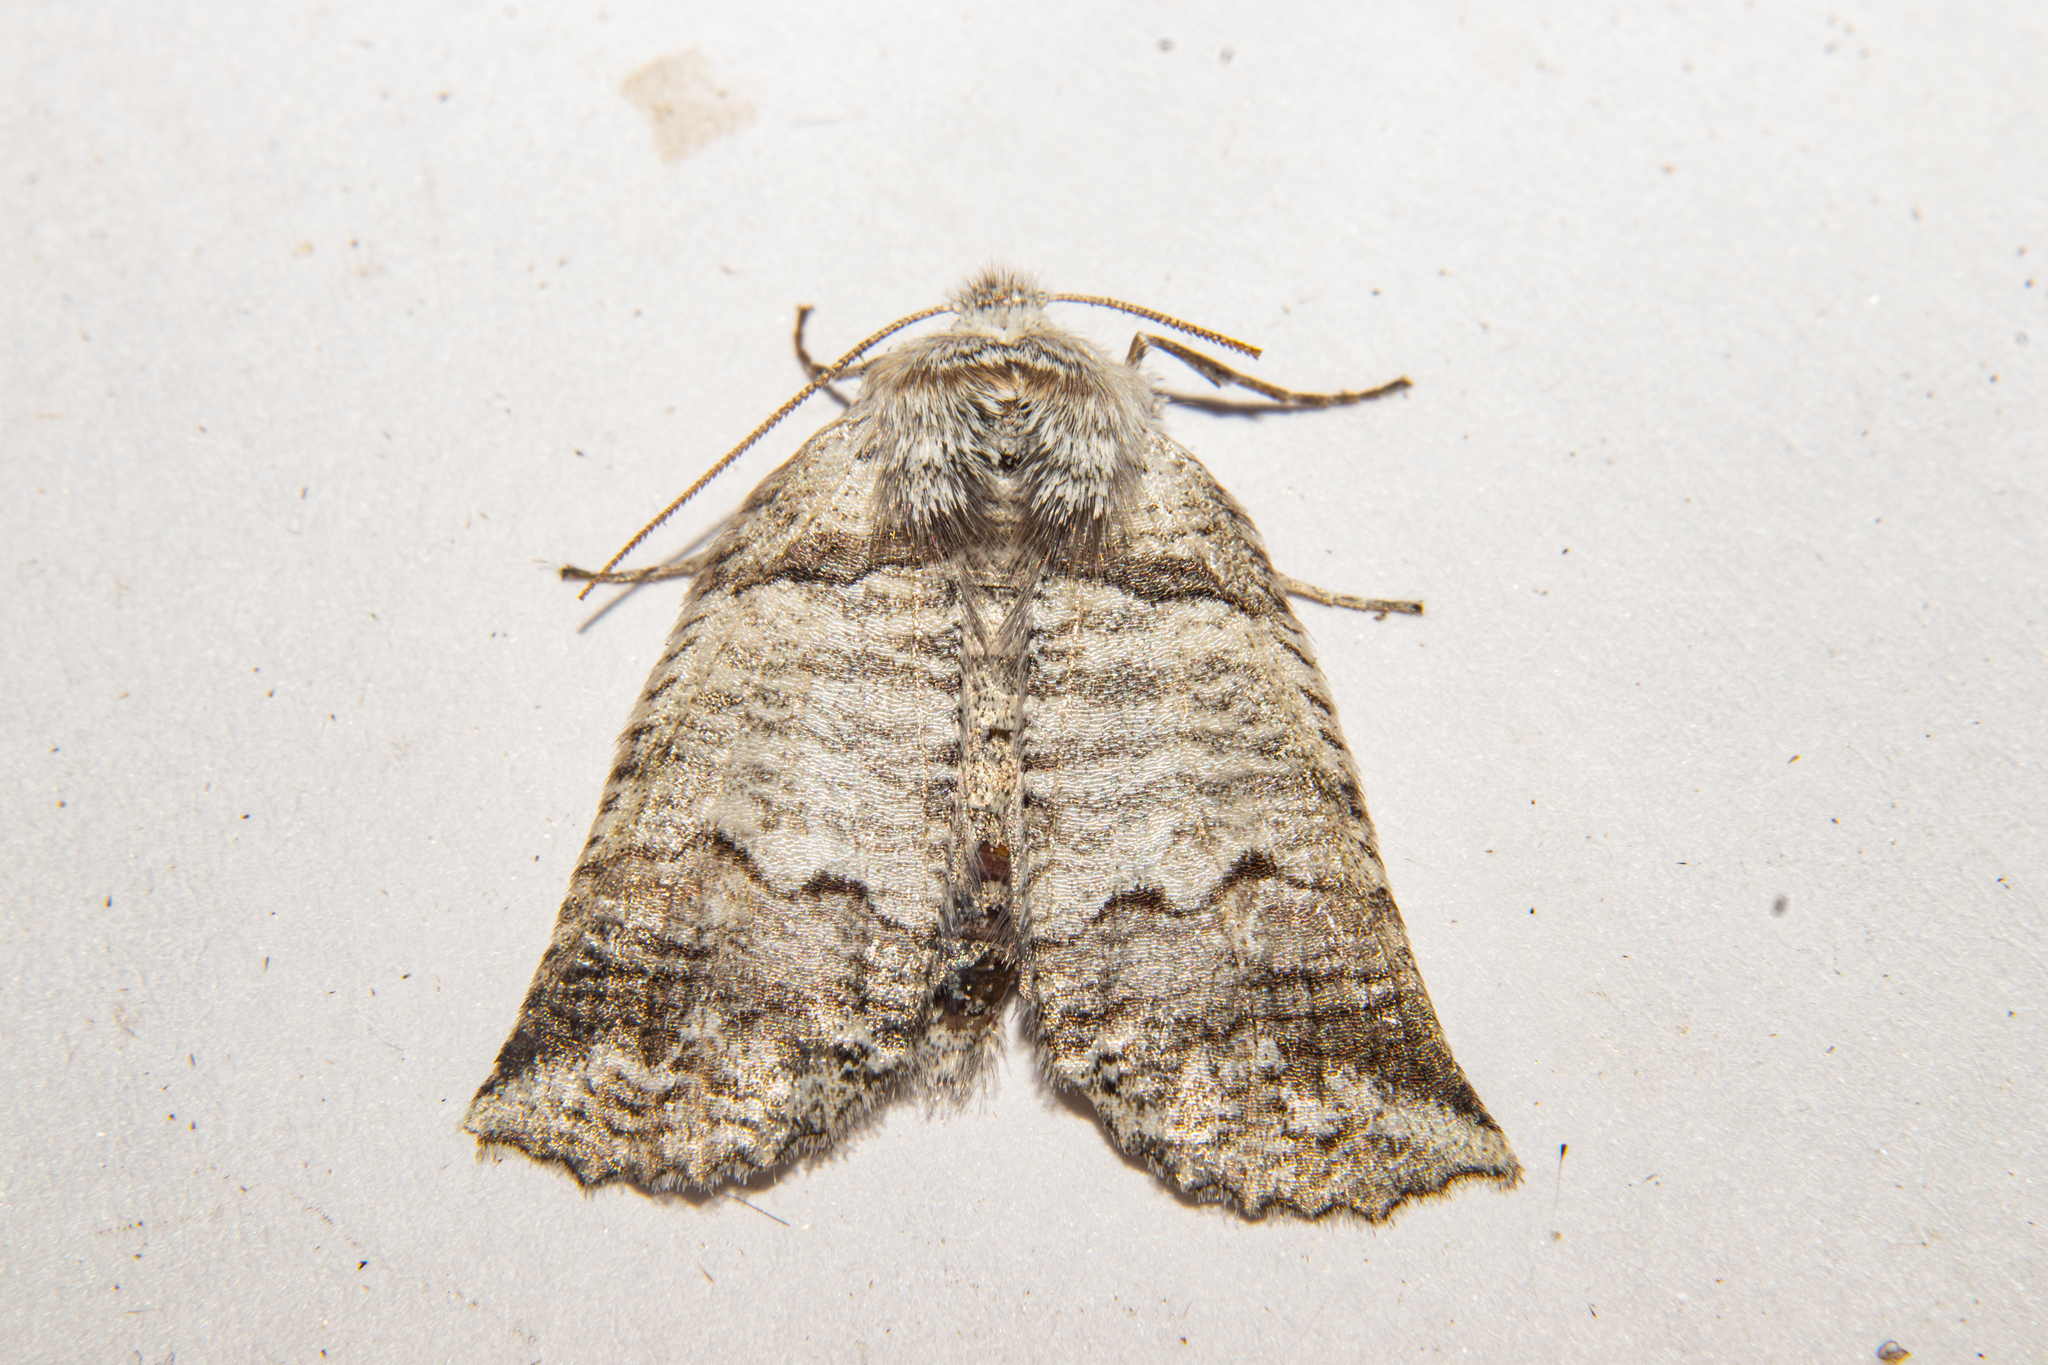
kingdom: Animalia
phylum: Arthropoda
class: Insecta
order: Lepidoptera
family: Geometridae
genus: Declana
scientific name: Declana
